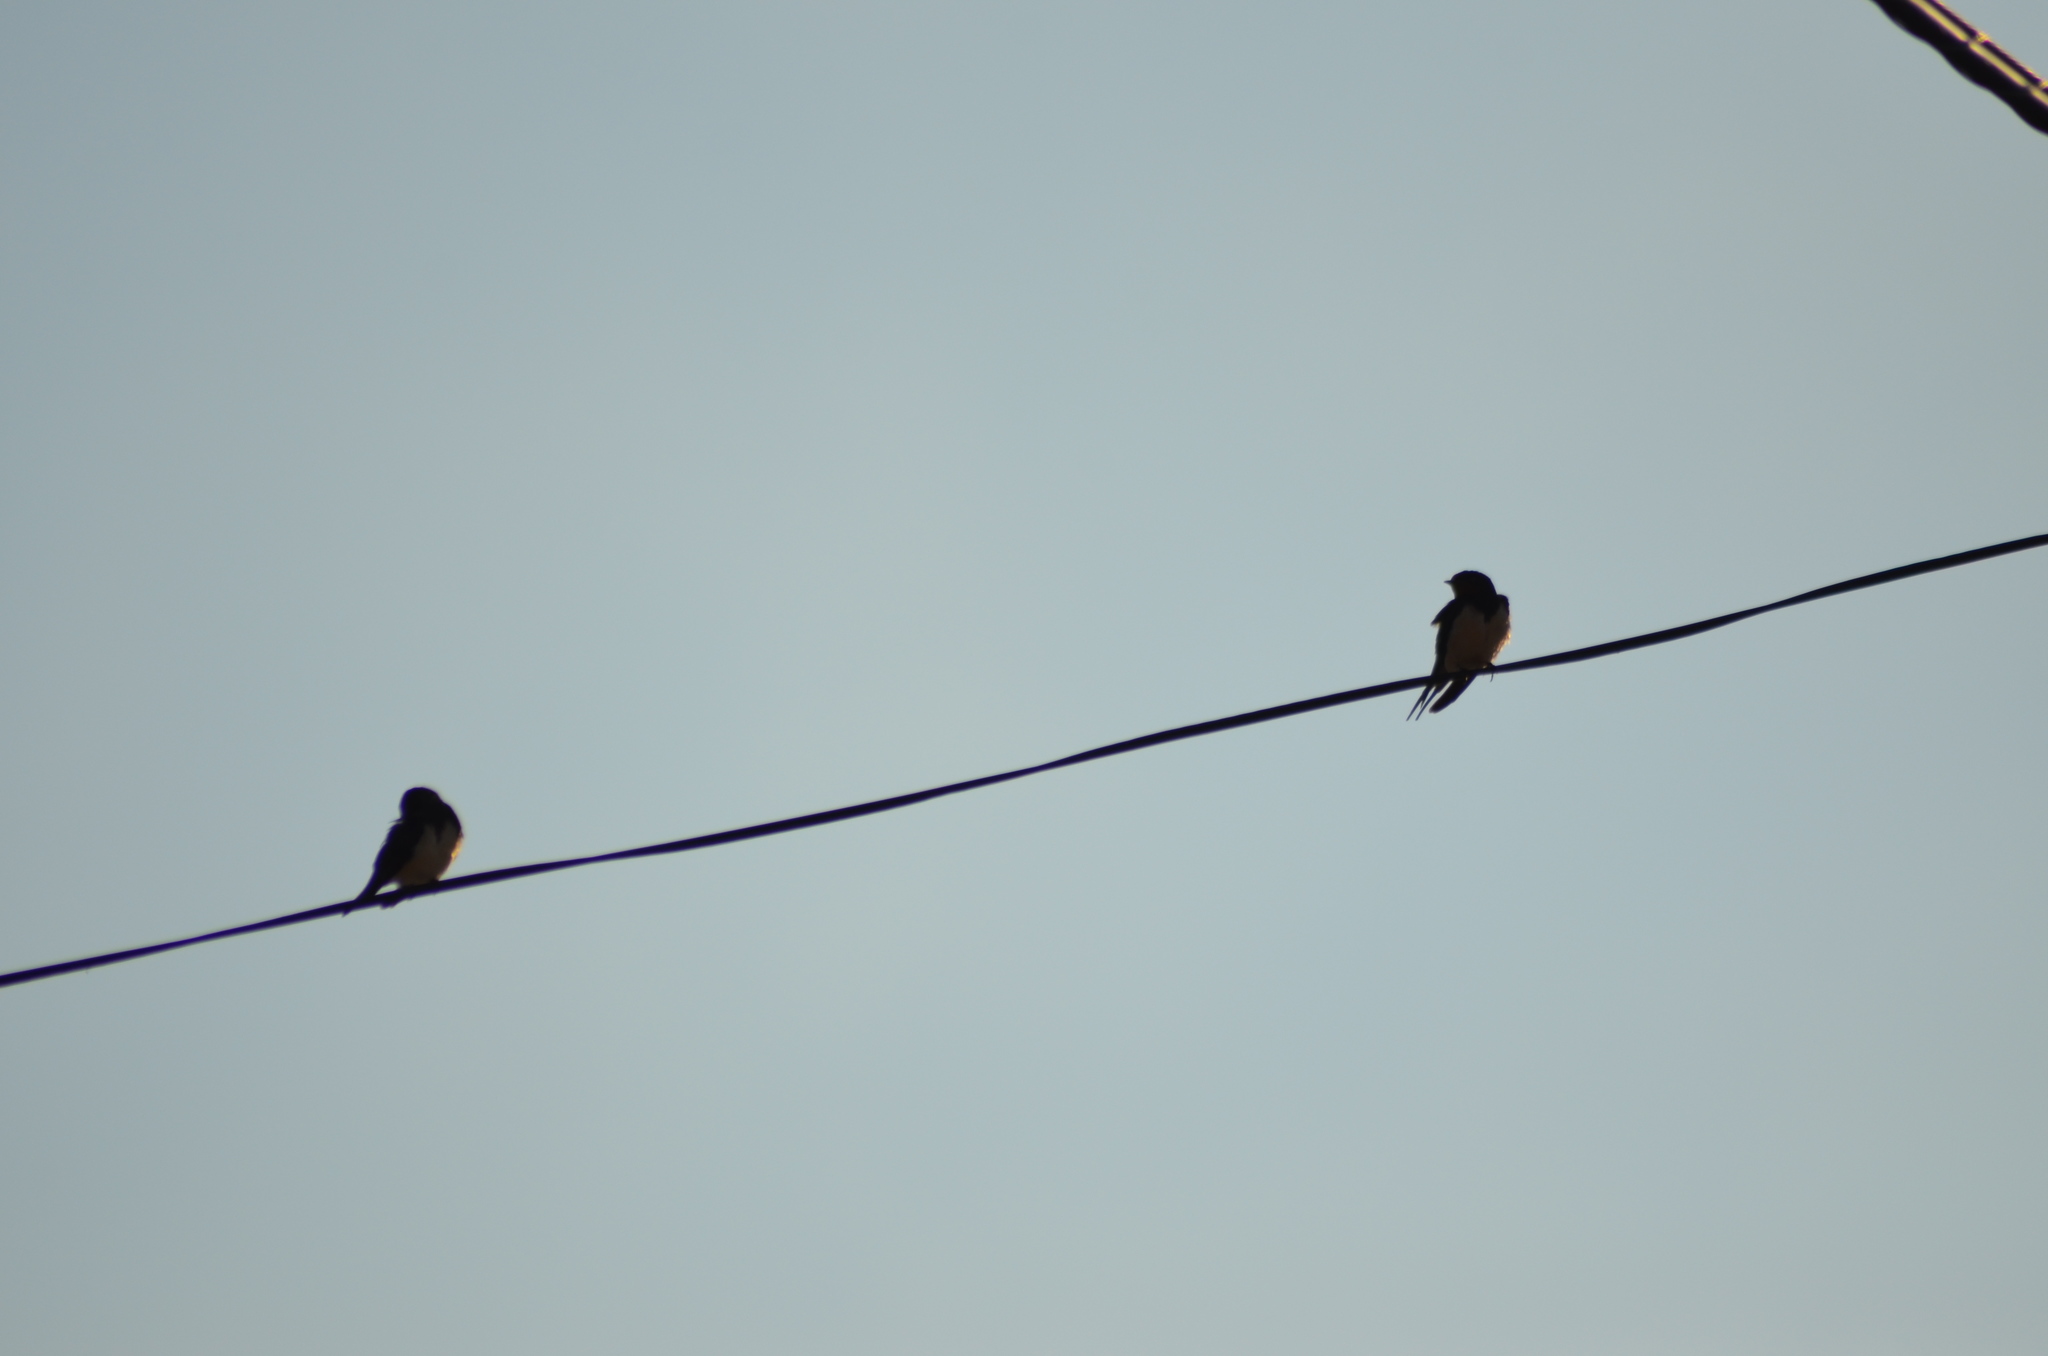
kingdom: Animalia
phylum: Chordata
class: Aves
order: Passeriformes
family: Hirundinidae
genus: Hirundo
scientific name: Hirundo rustica
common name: Barn swallow
